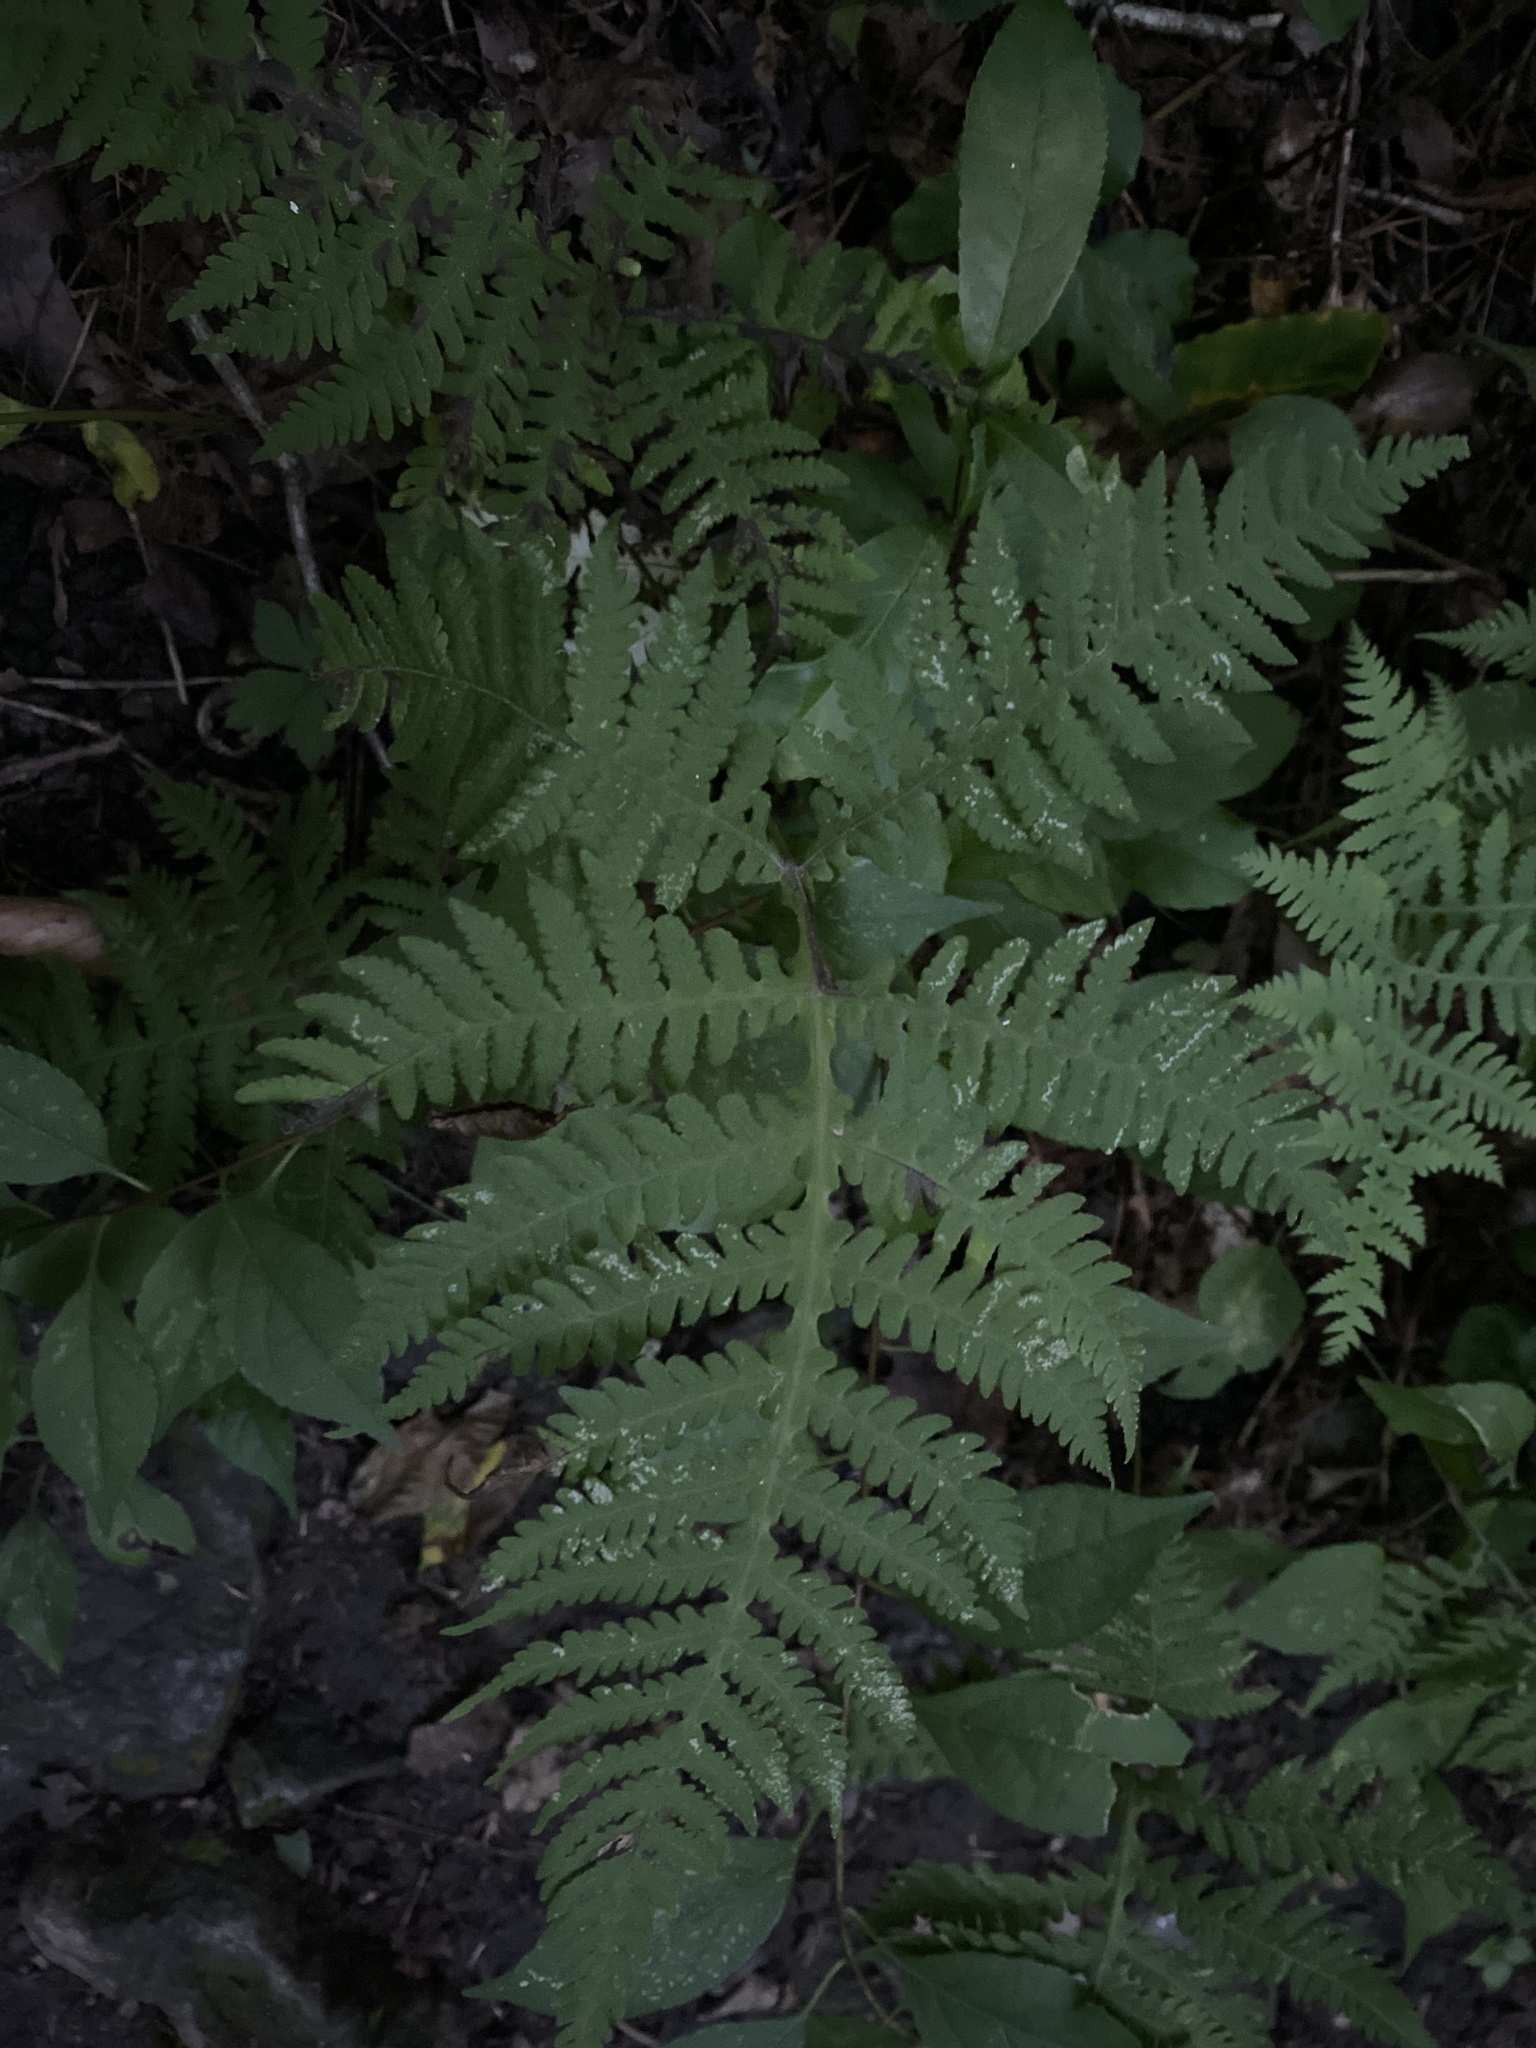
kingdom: Plantae
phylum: Tracheophyta
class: Polypodiopsida
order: Polypodiales
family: Thelypteridaceae
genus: Phegopteris
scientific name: Phegopteris hexagonoptera
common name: Broad beech fern
